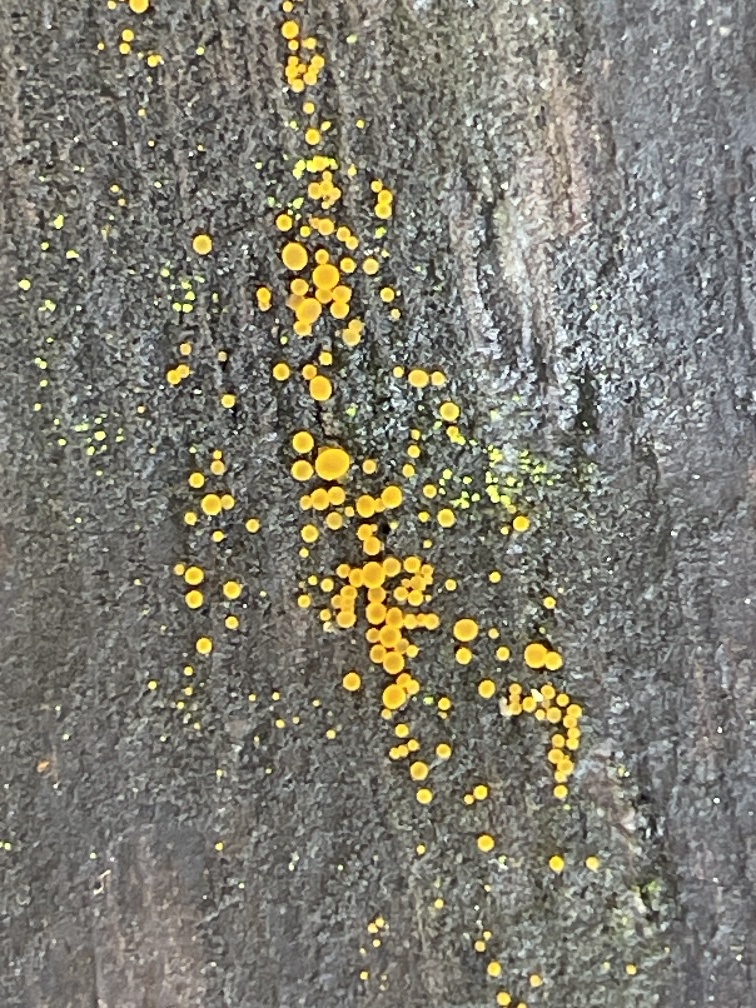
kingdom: Fungi
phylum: Ascomycota
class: Leotiomycetes
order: Helotiales
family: Pezizellaceae
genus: Calycina
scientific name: Calycina claroflava
